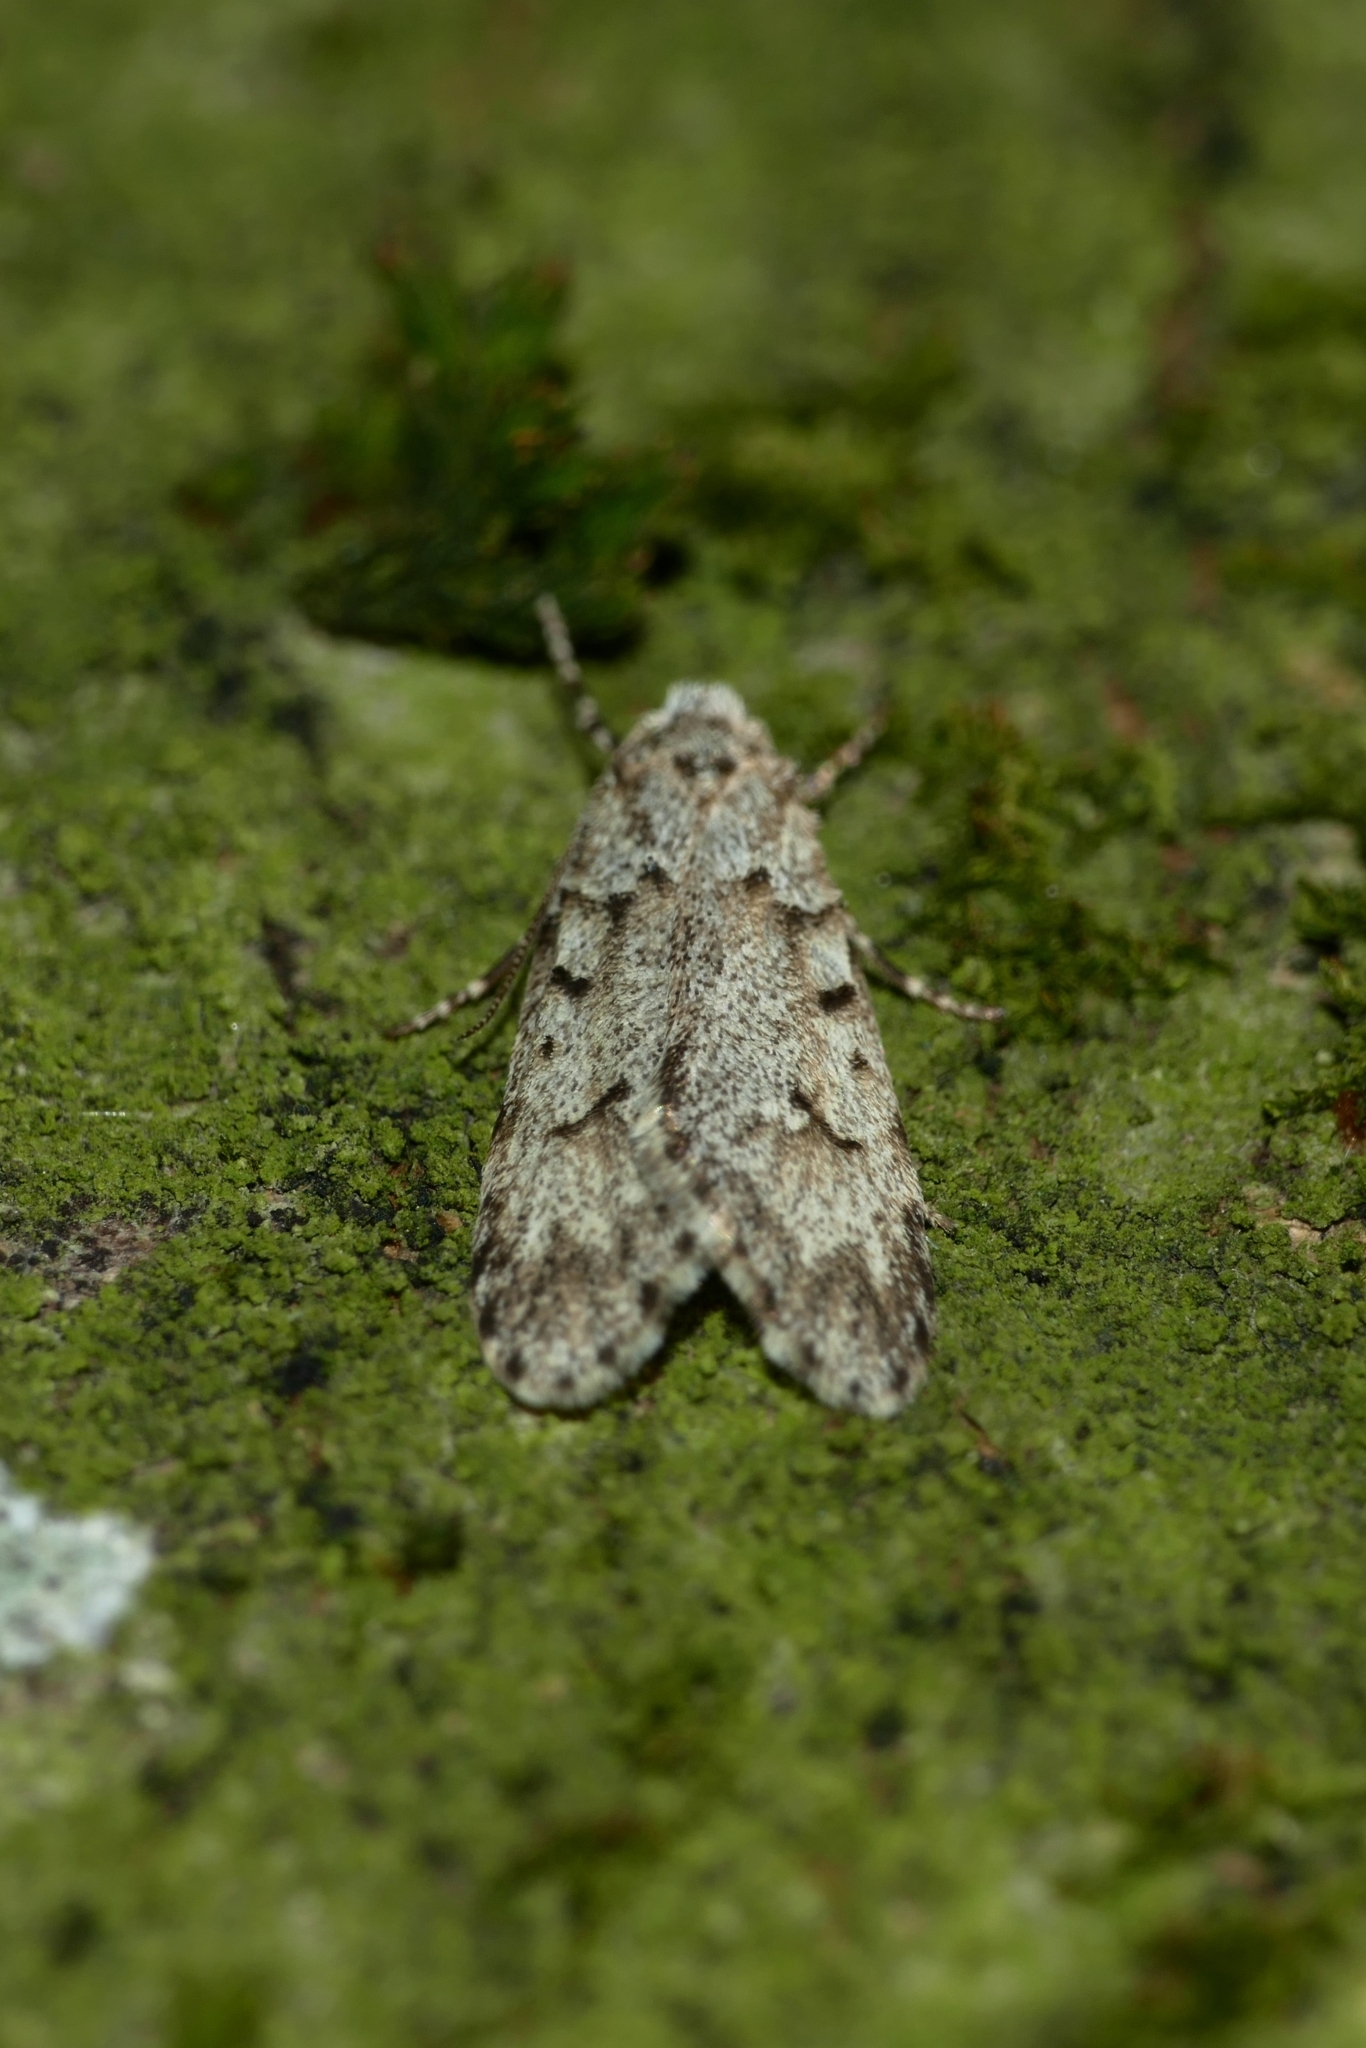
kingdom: Animalia
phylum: Arthropoda
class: Insecta
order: Lepidoptera
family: Lypusidae
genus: Diurnea
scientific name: Diurnea fagella
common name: March tubic
